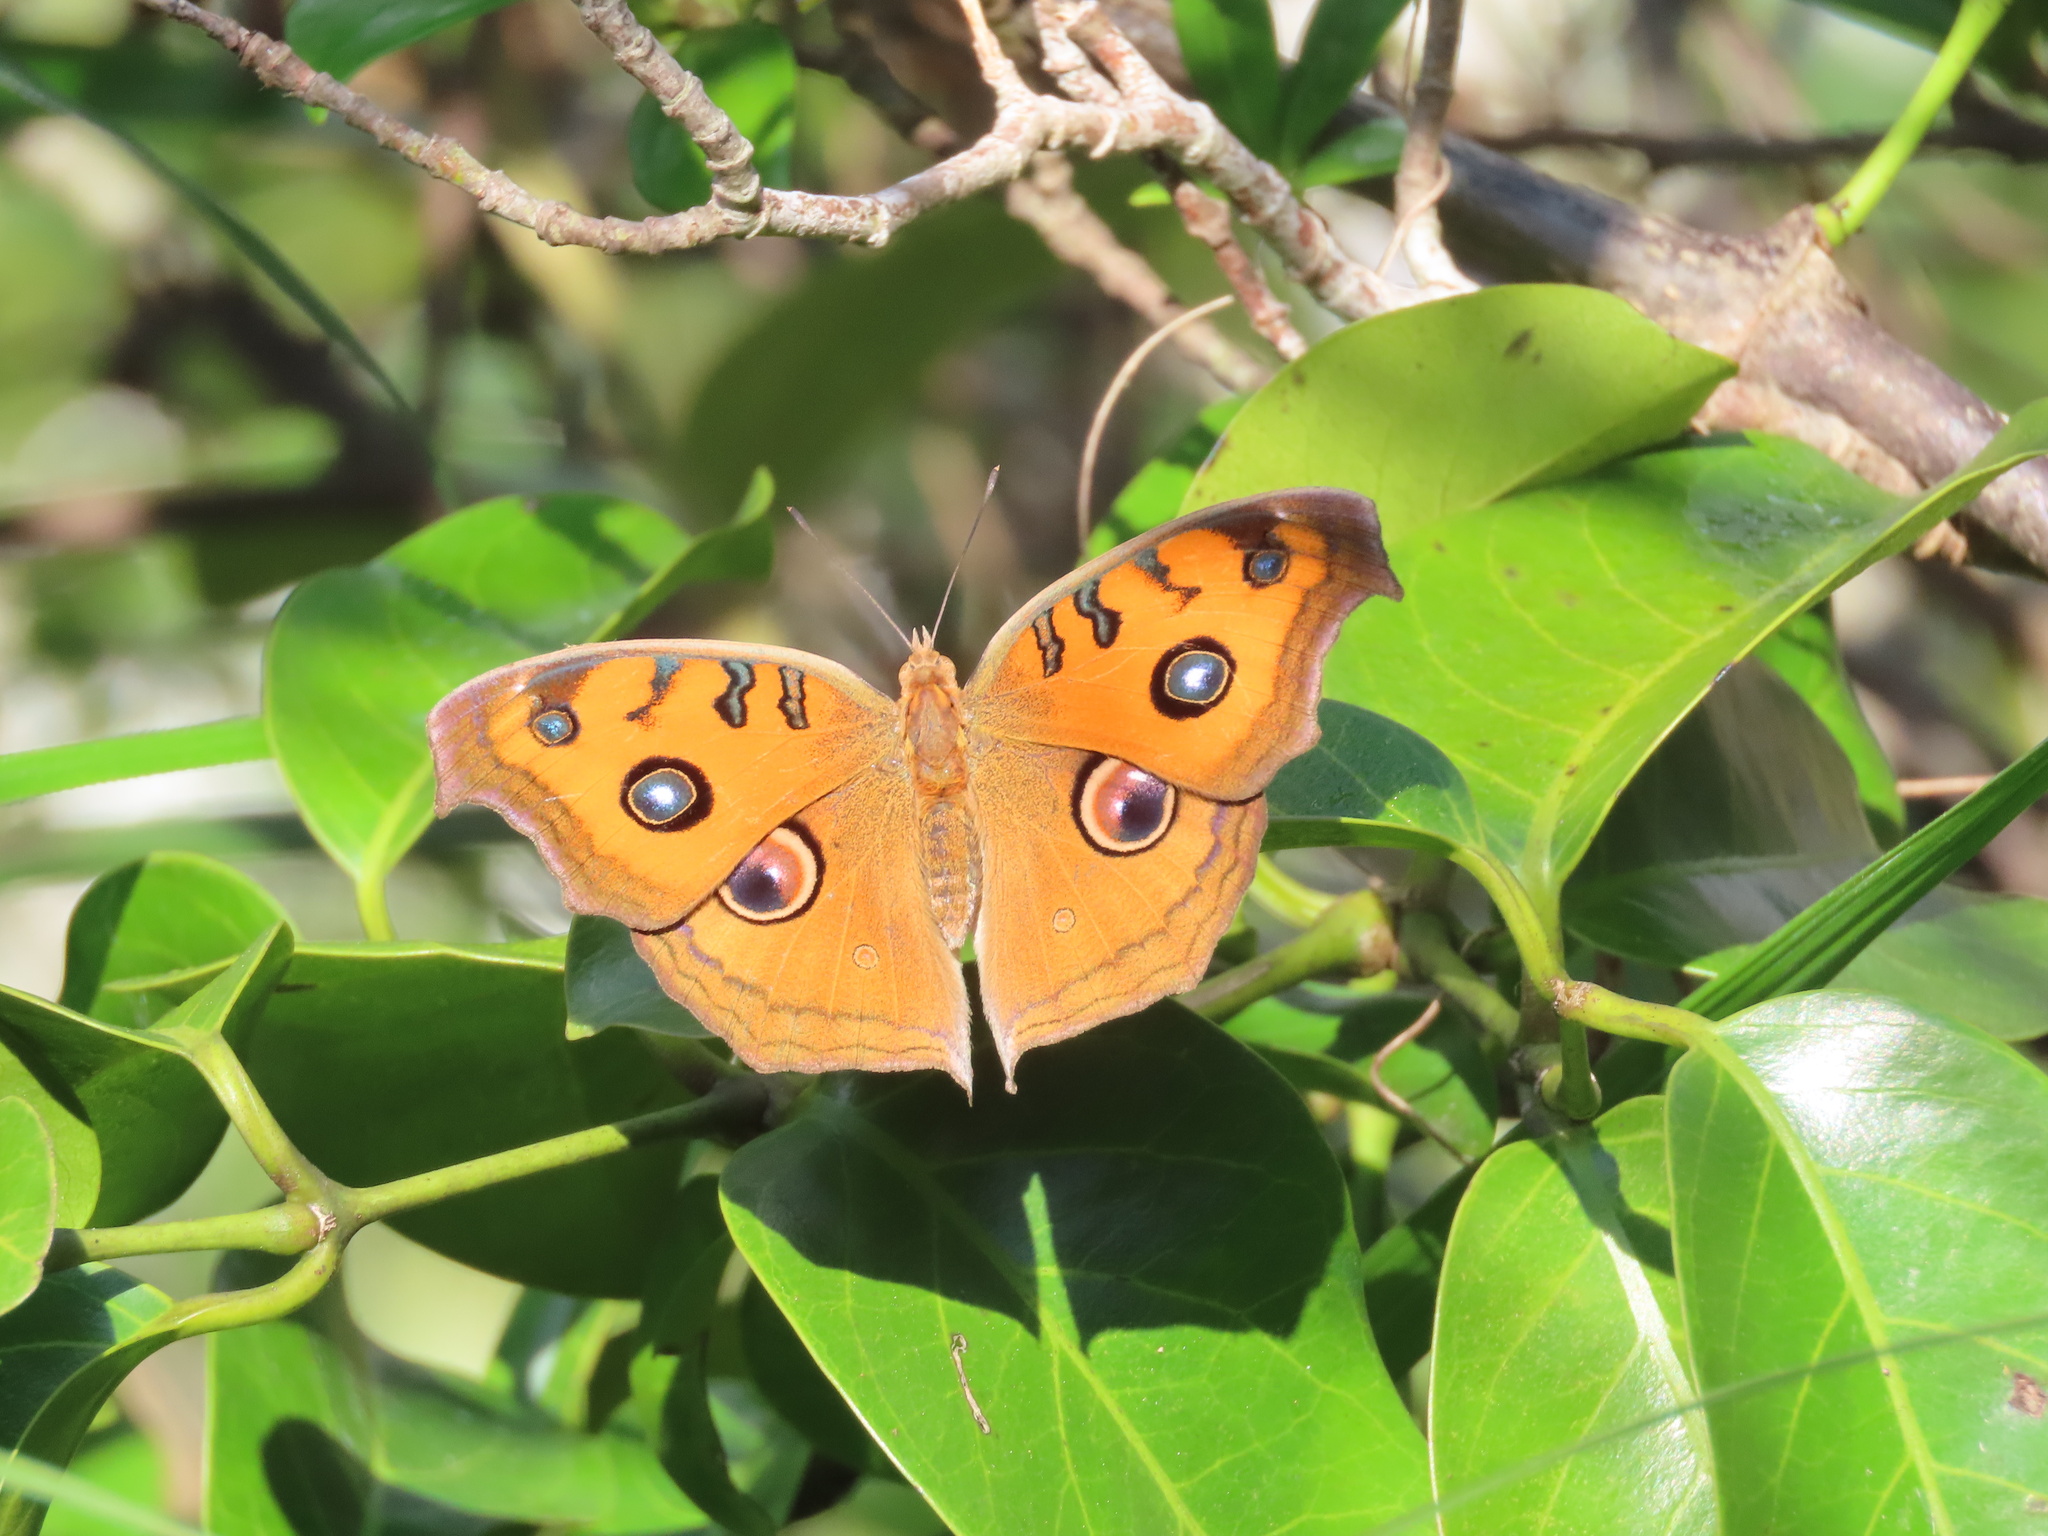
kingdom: Animalia
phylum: Arthropoda
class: Insecta
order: Lepidoptera
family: Nymphalidae
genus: Junonia
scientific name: Junonia almana
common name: Peacock pansy
